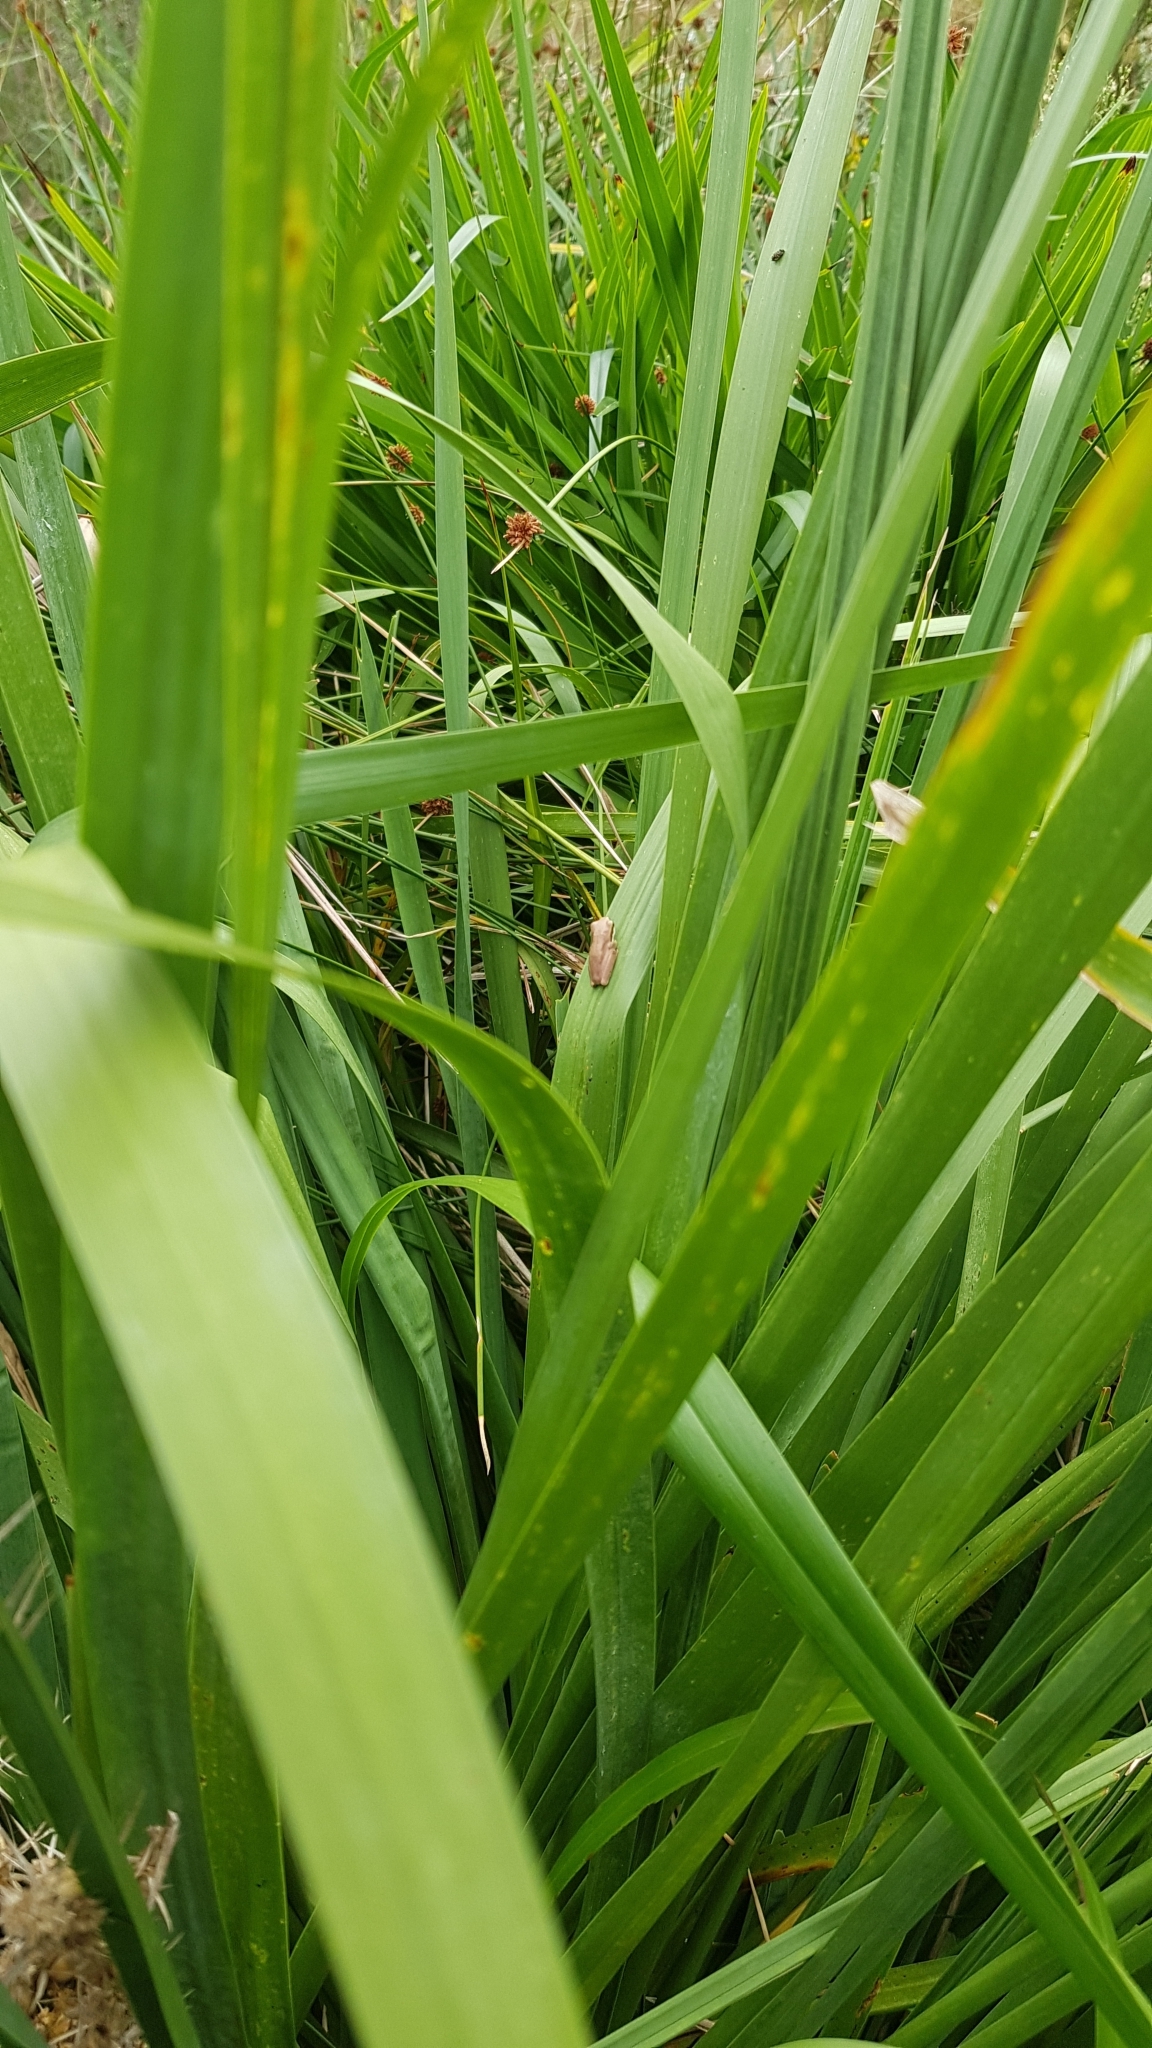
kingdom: Animalia
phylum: Chordata
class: Amphibia
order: Anura
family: Pelodryadidae
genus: Litoria
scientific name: Litoria fallax
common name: Eastern dwarf treefrog
